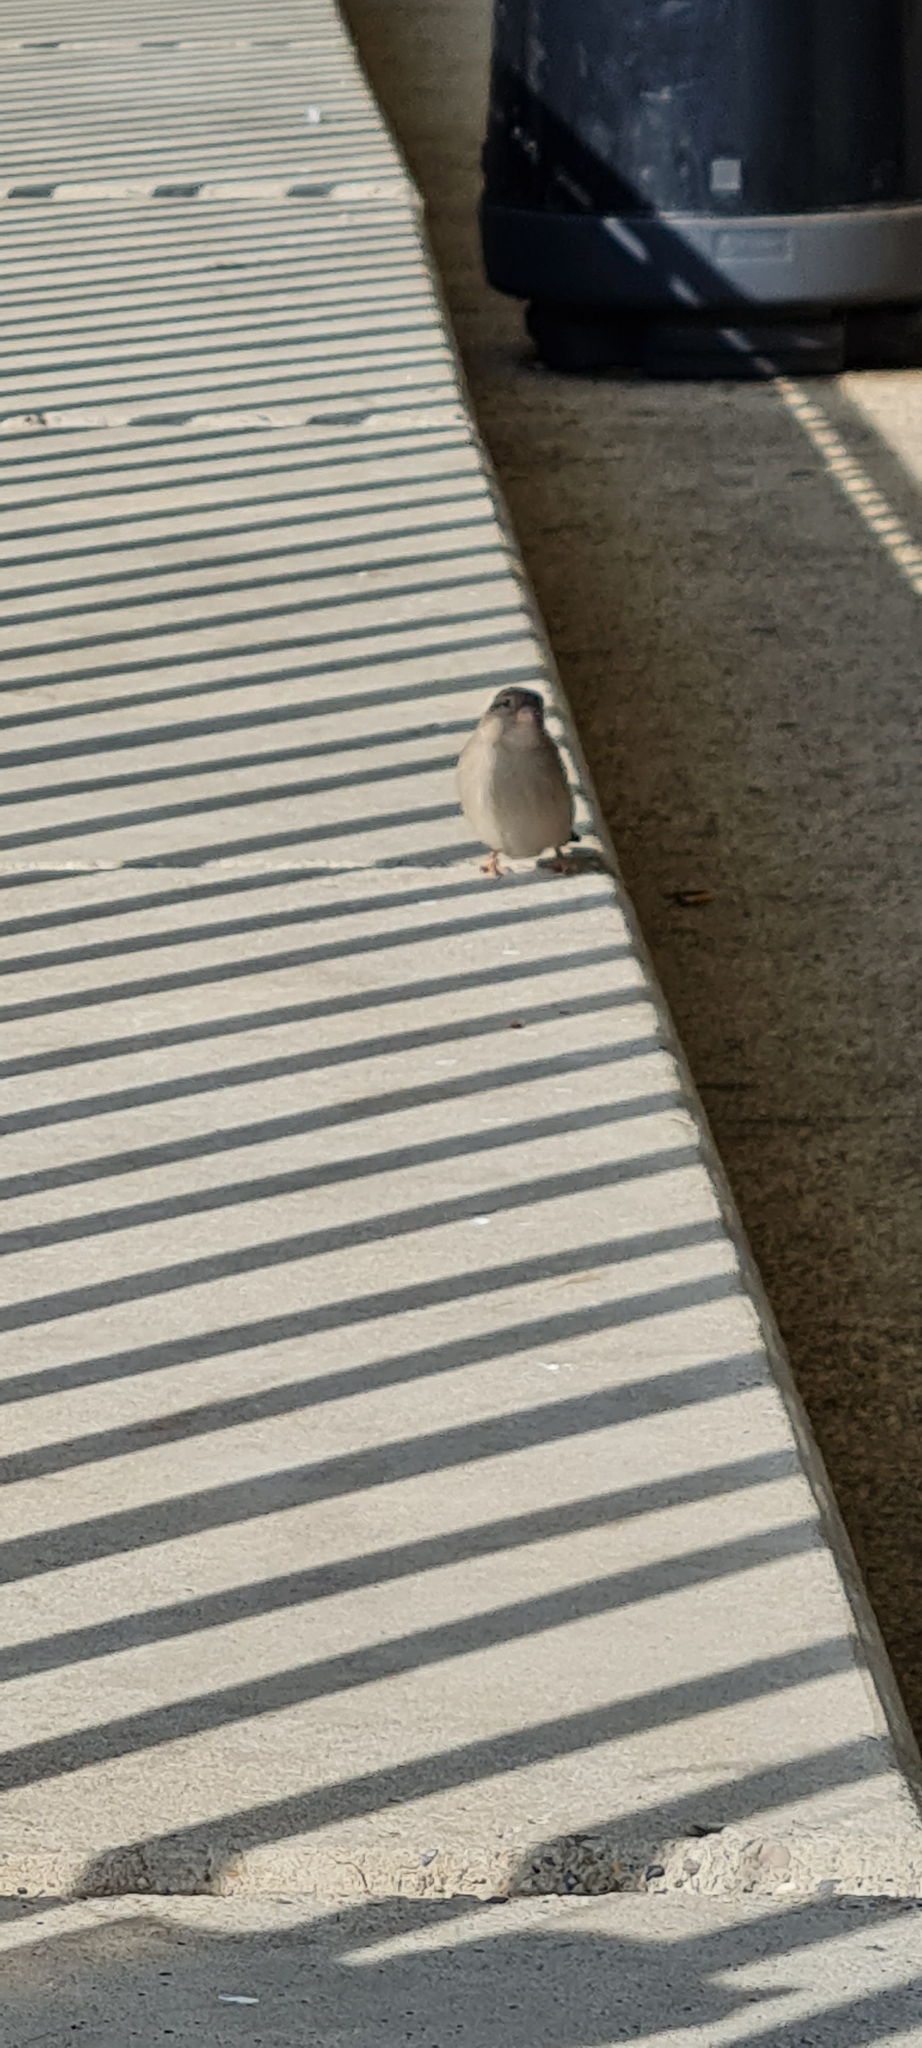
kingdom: Animalia
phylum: Chordata
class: Aves
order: Passeriformes
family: Passeridae
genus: Passer
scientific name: Passer domesticus
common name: House sparrow
